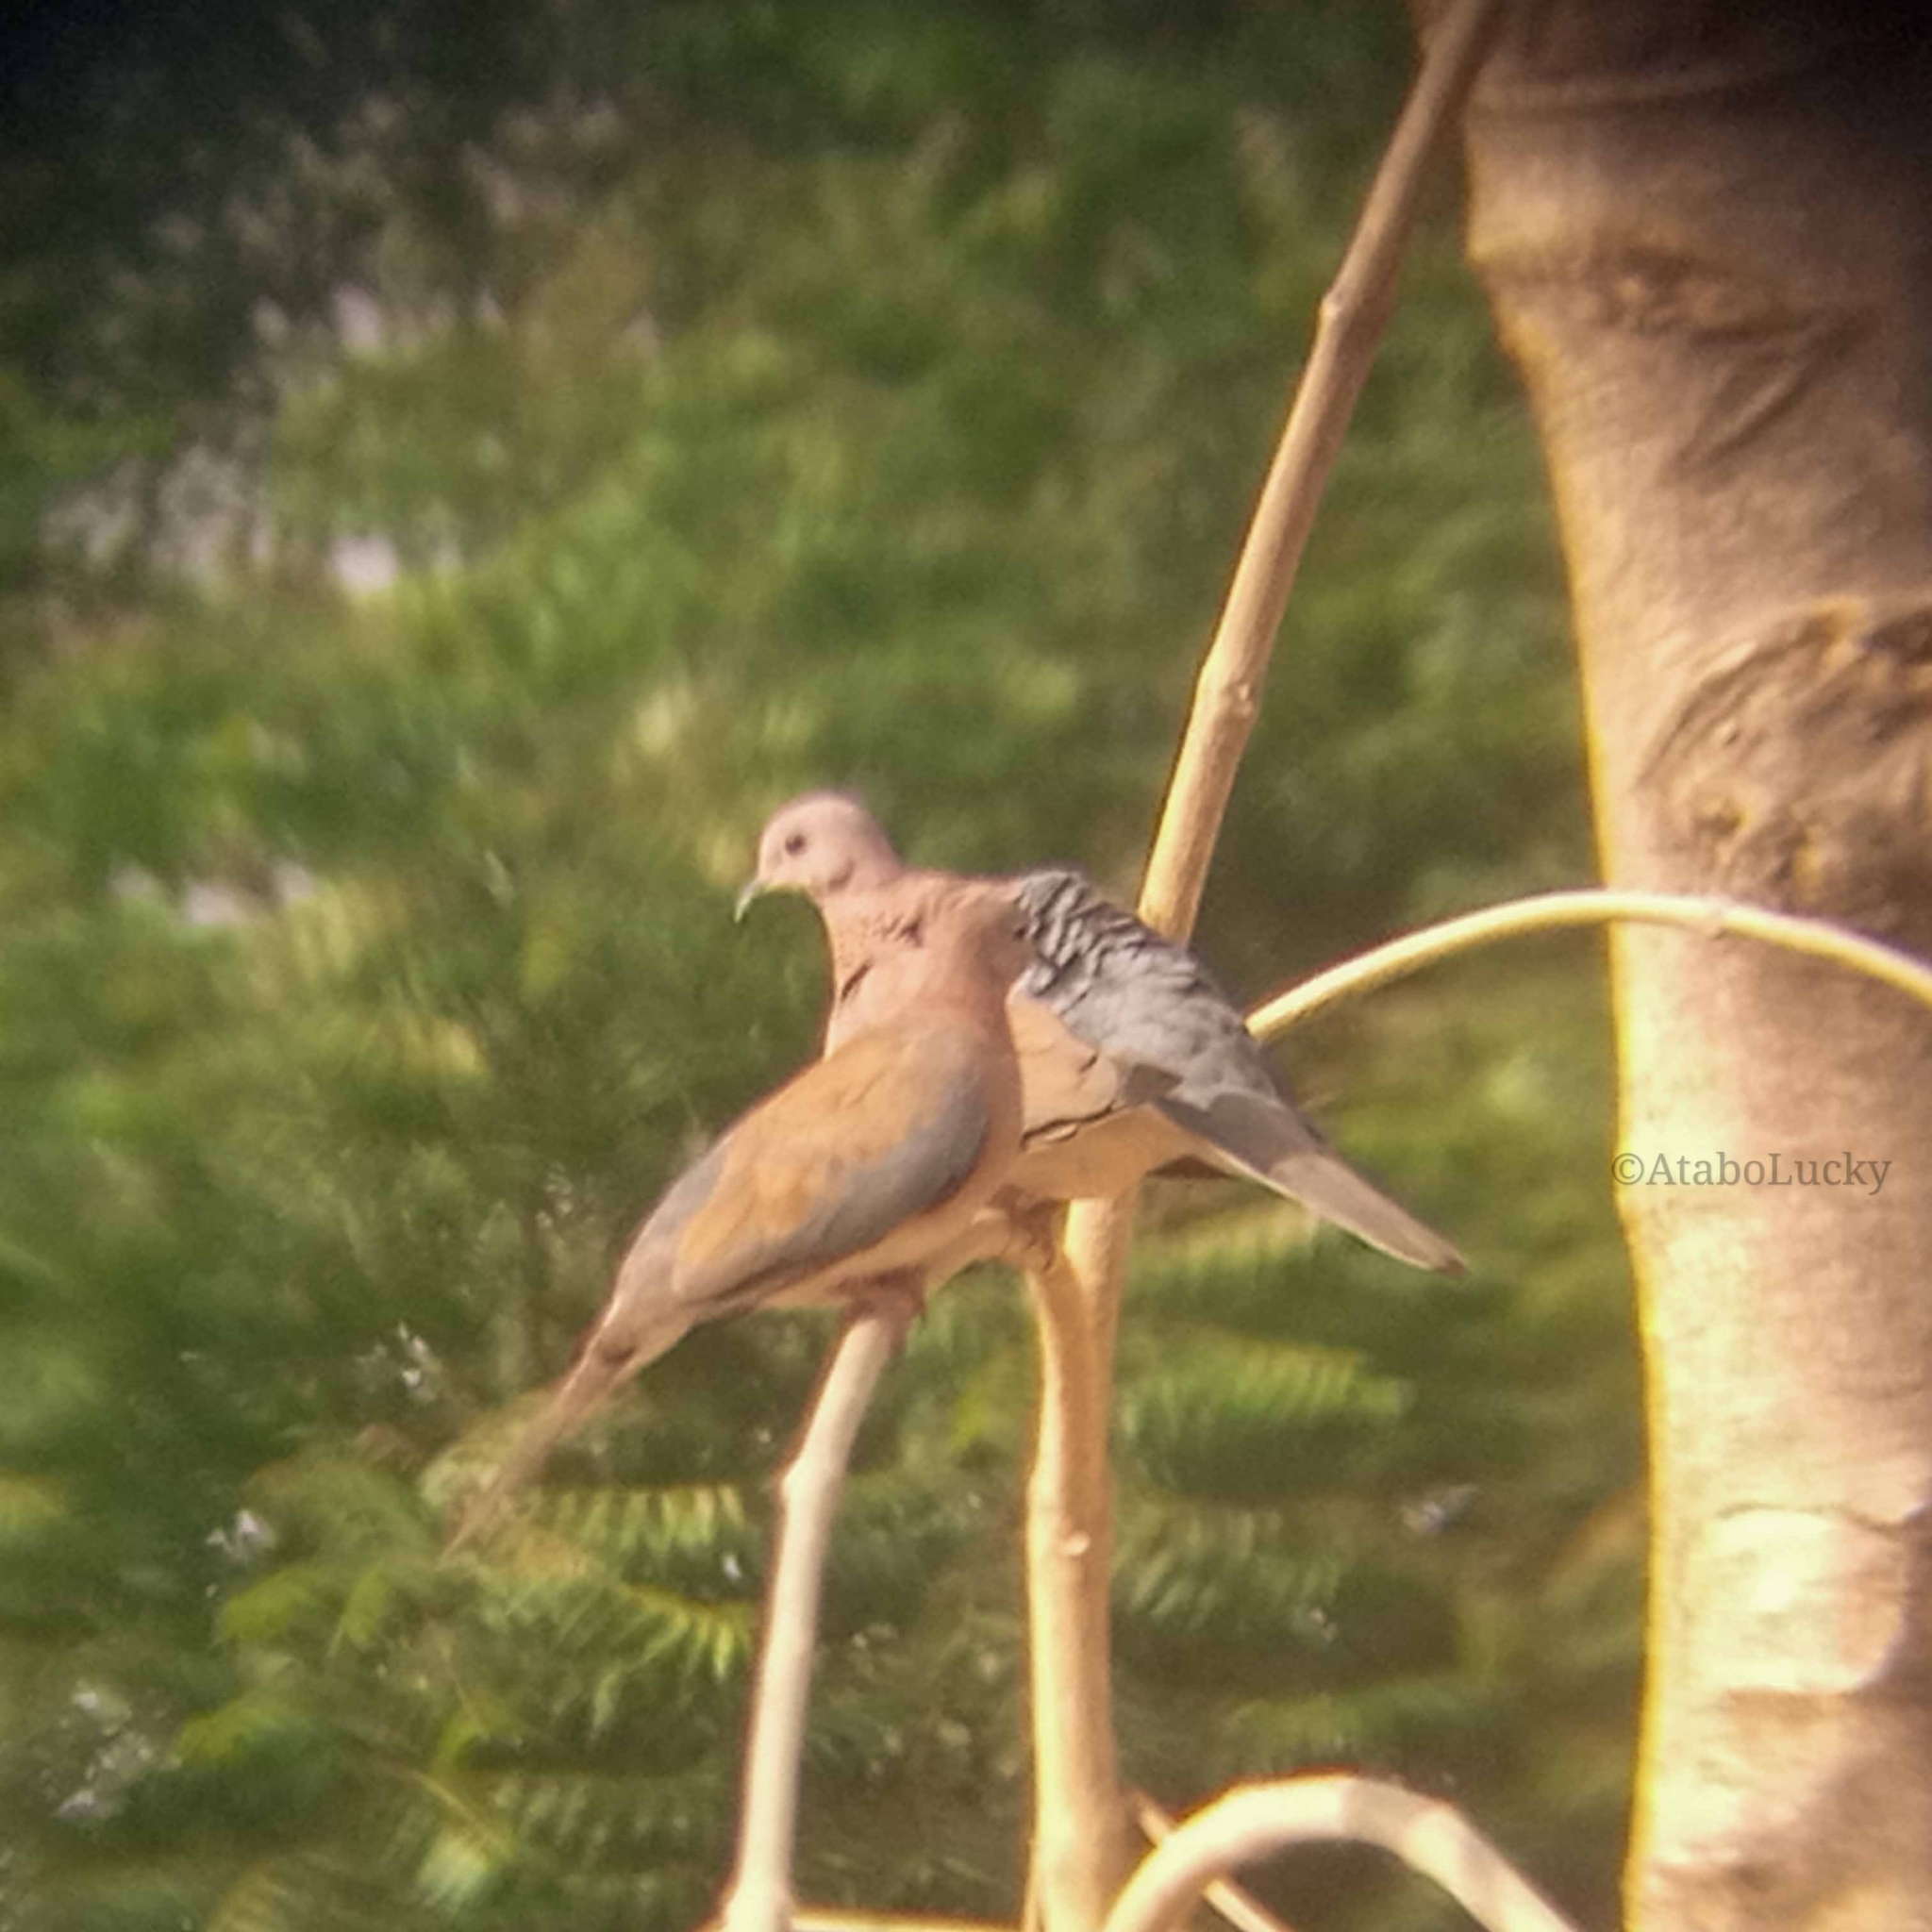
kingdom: Animalia
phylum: Chordata
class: Aves
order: Columbiformes
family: Columbidae
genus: Spilopelia
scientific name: Spilopelia senegalensis
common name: Laughing dove
